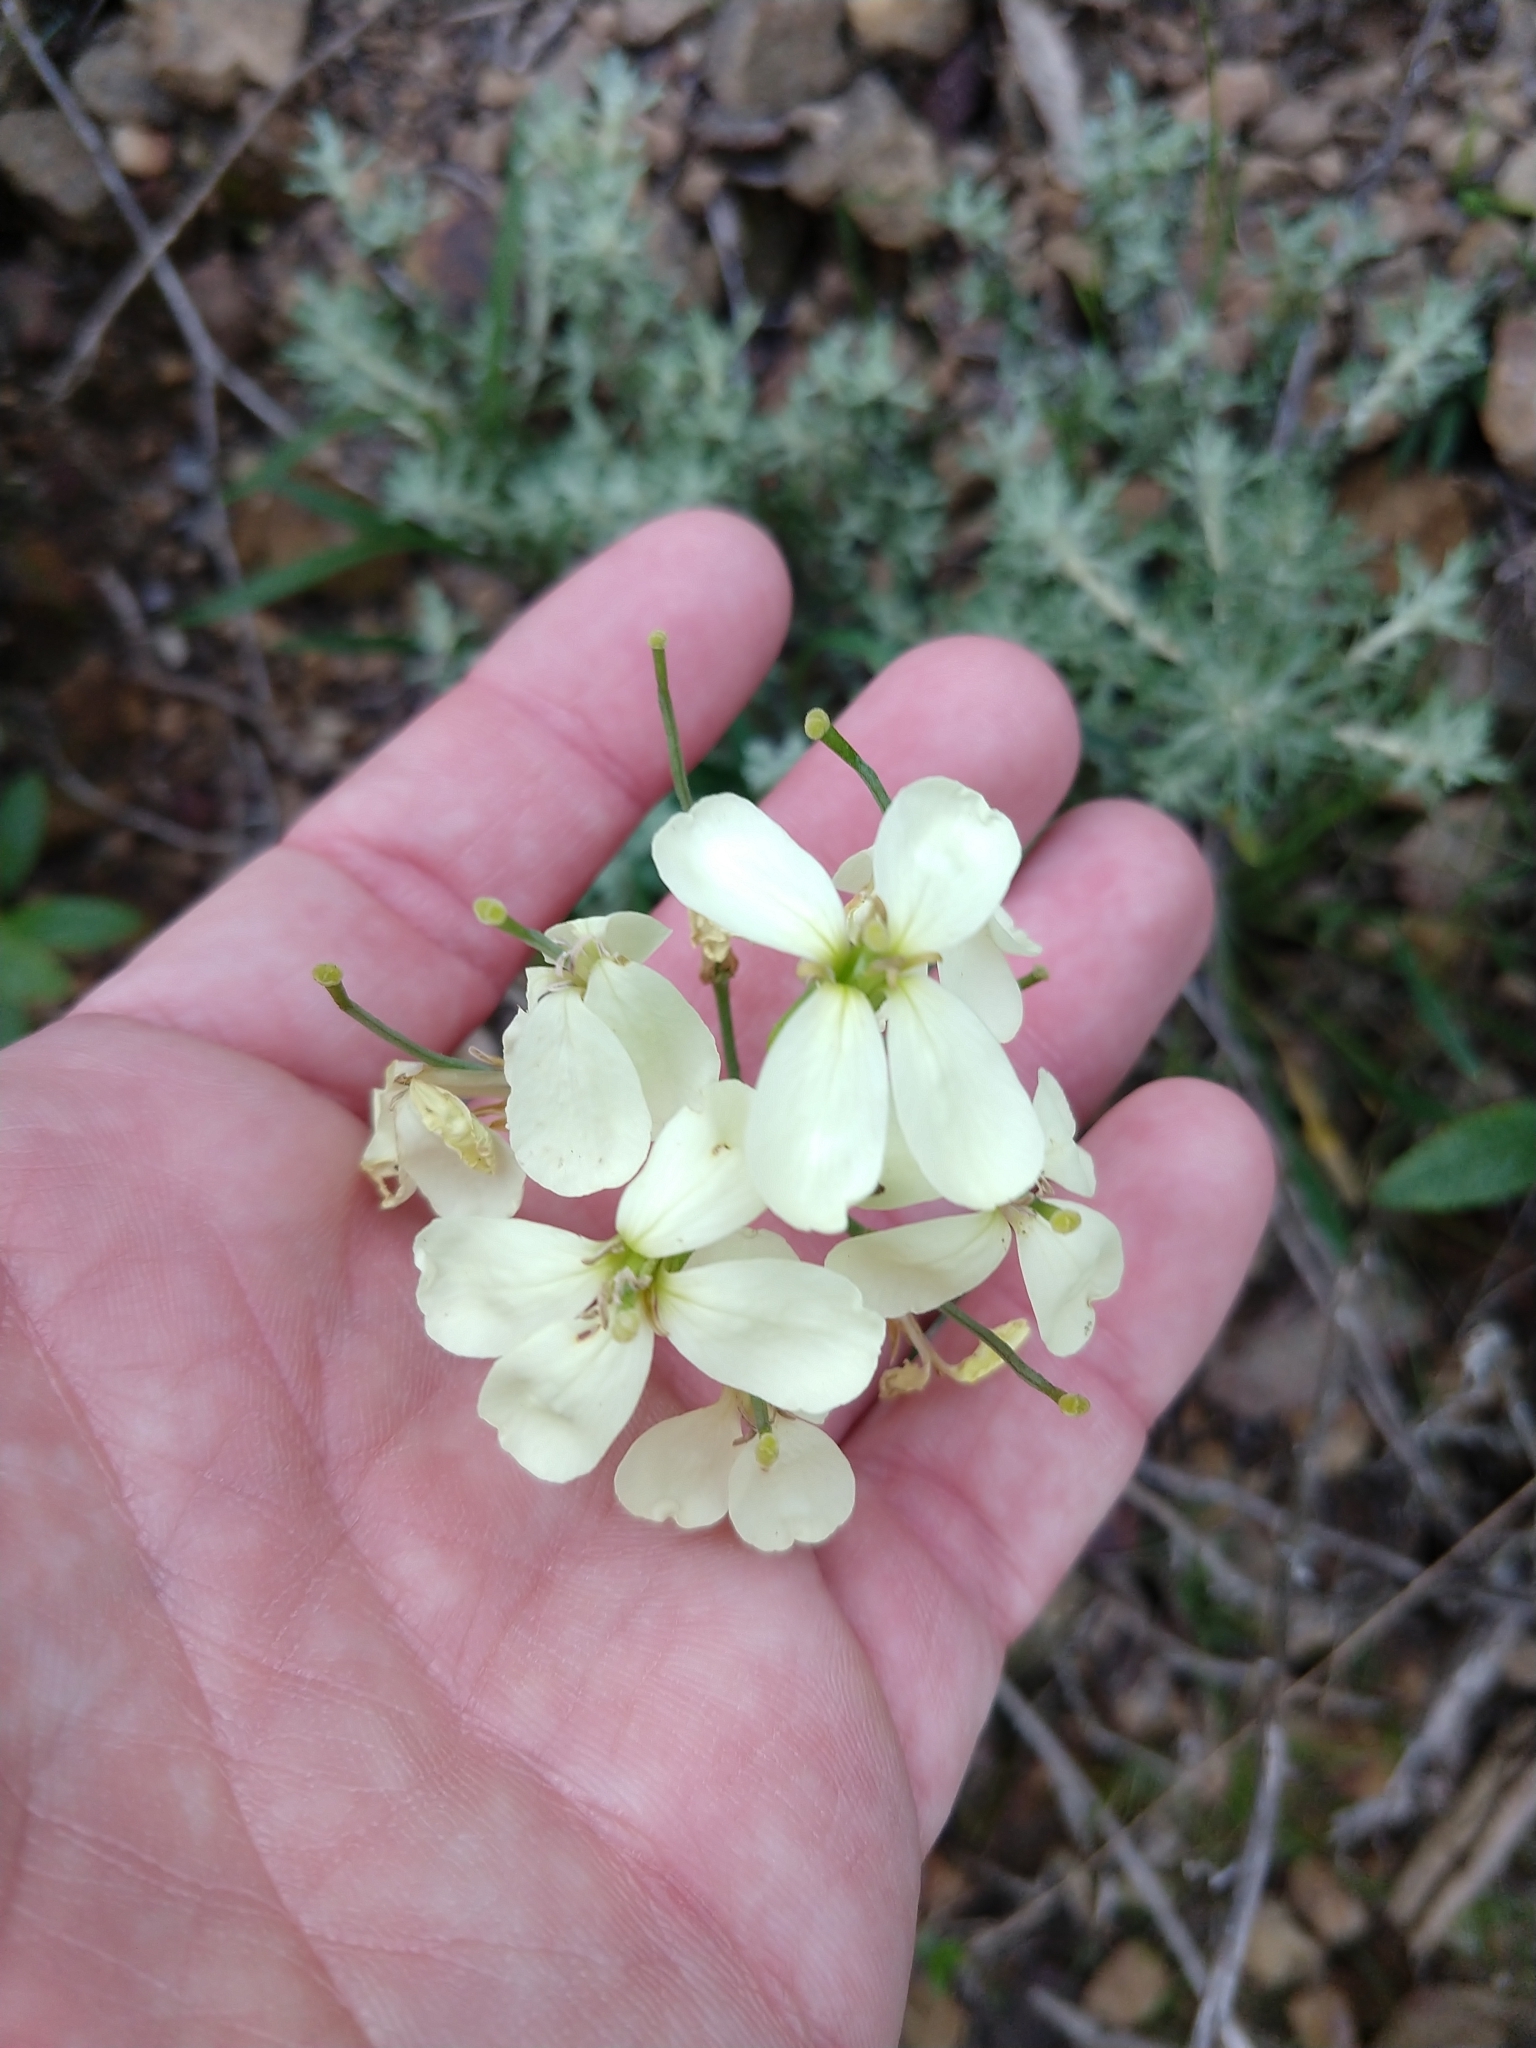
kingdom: Plantae
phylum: Tracheophyta
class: Magnoliopsida
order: Brassicales
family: Brassicaceae
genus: Erysimum
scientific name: Erysimum franciscanum
